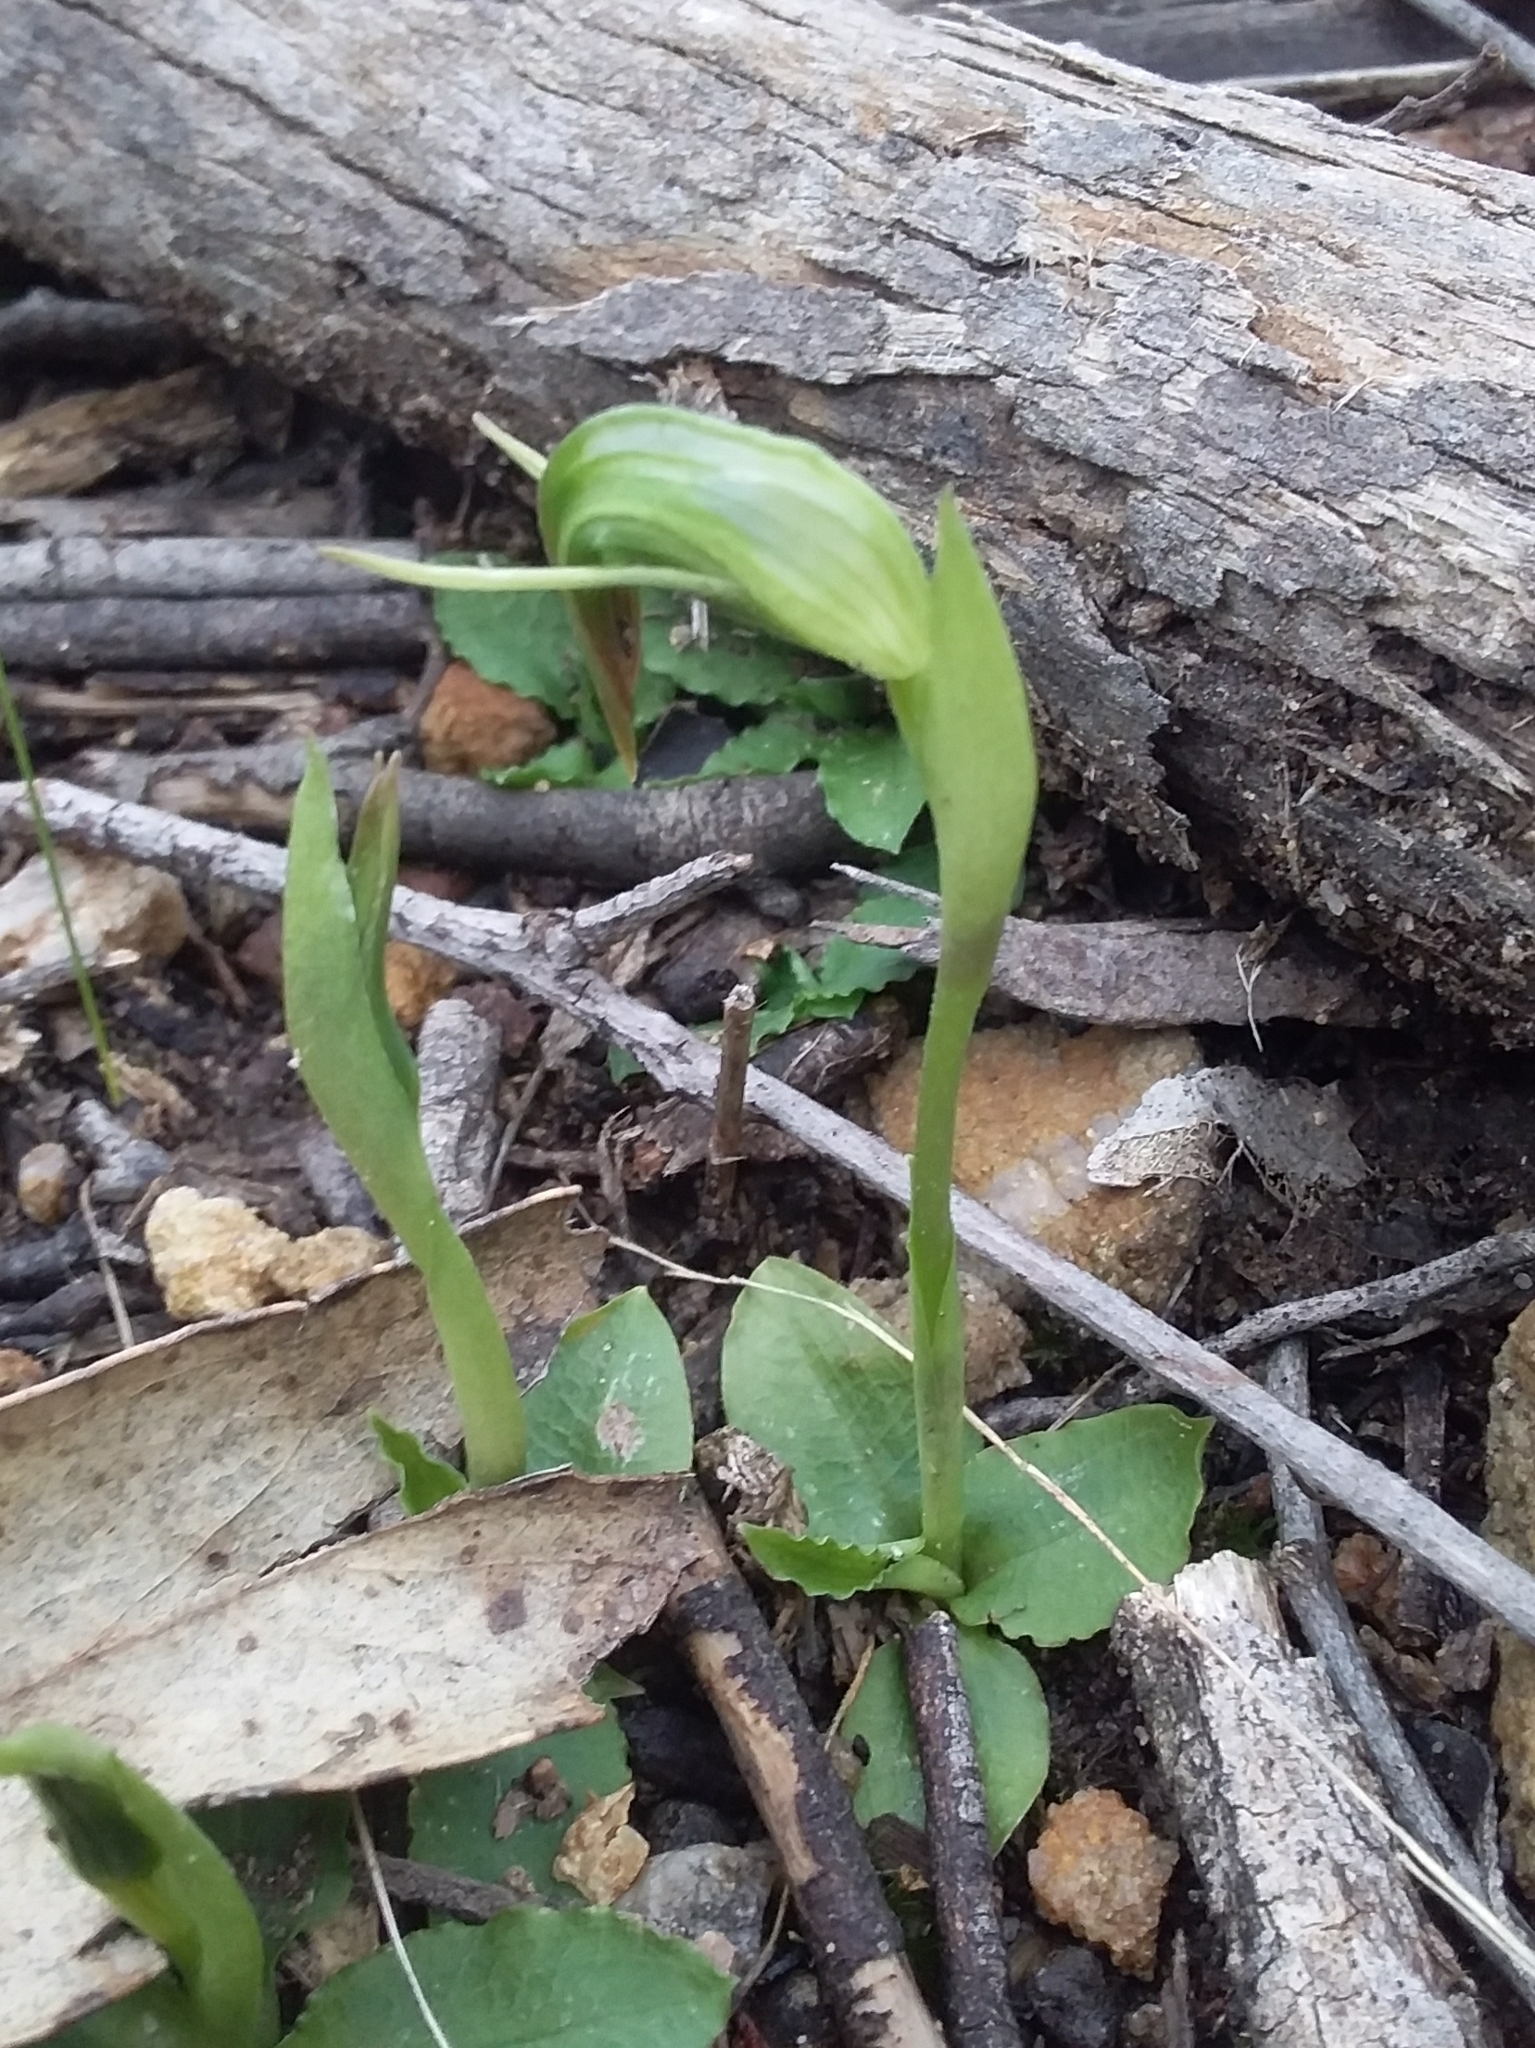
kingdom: Plantae
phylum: Tracheophyta
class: Liliopsida
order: Asparagales
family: Orchidaceae
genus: Pterostylis
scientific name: Pterostylis nutans
